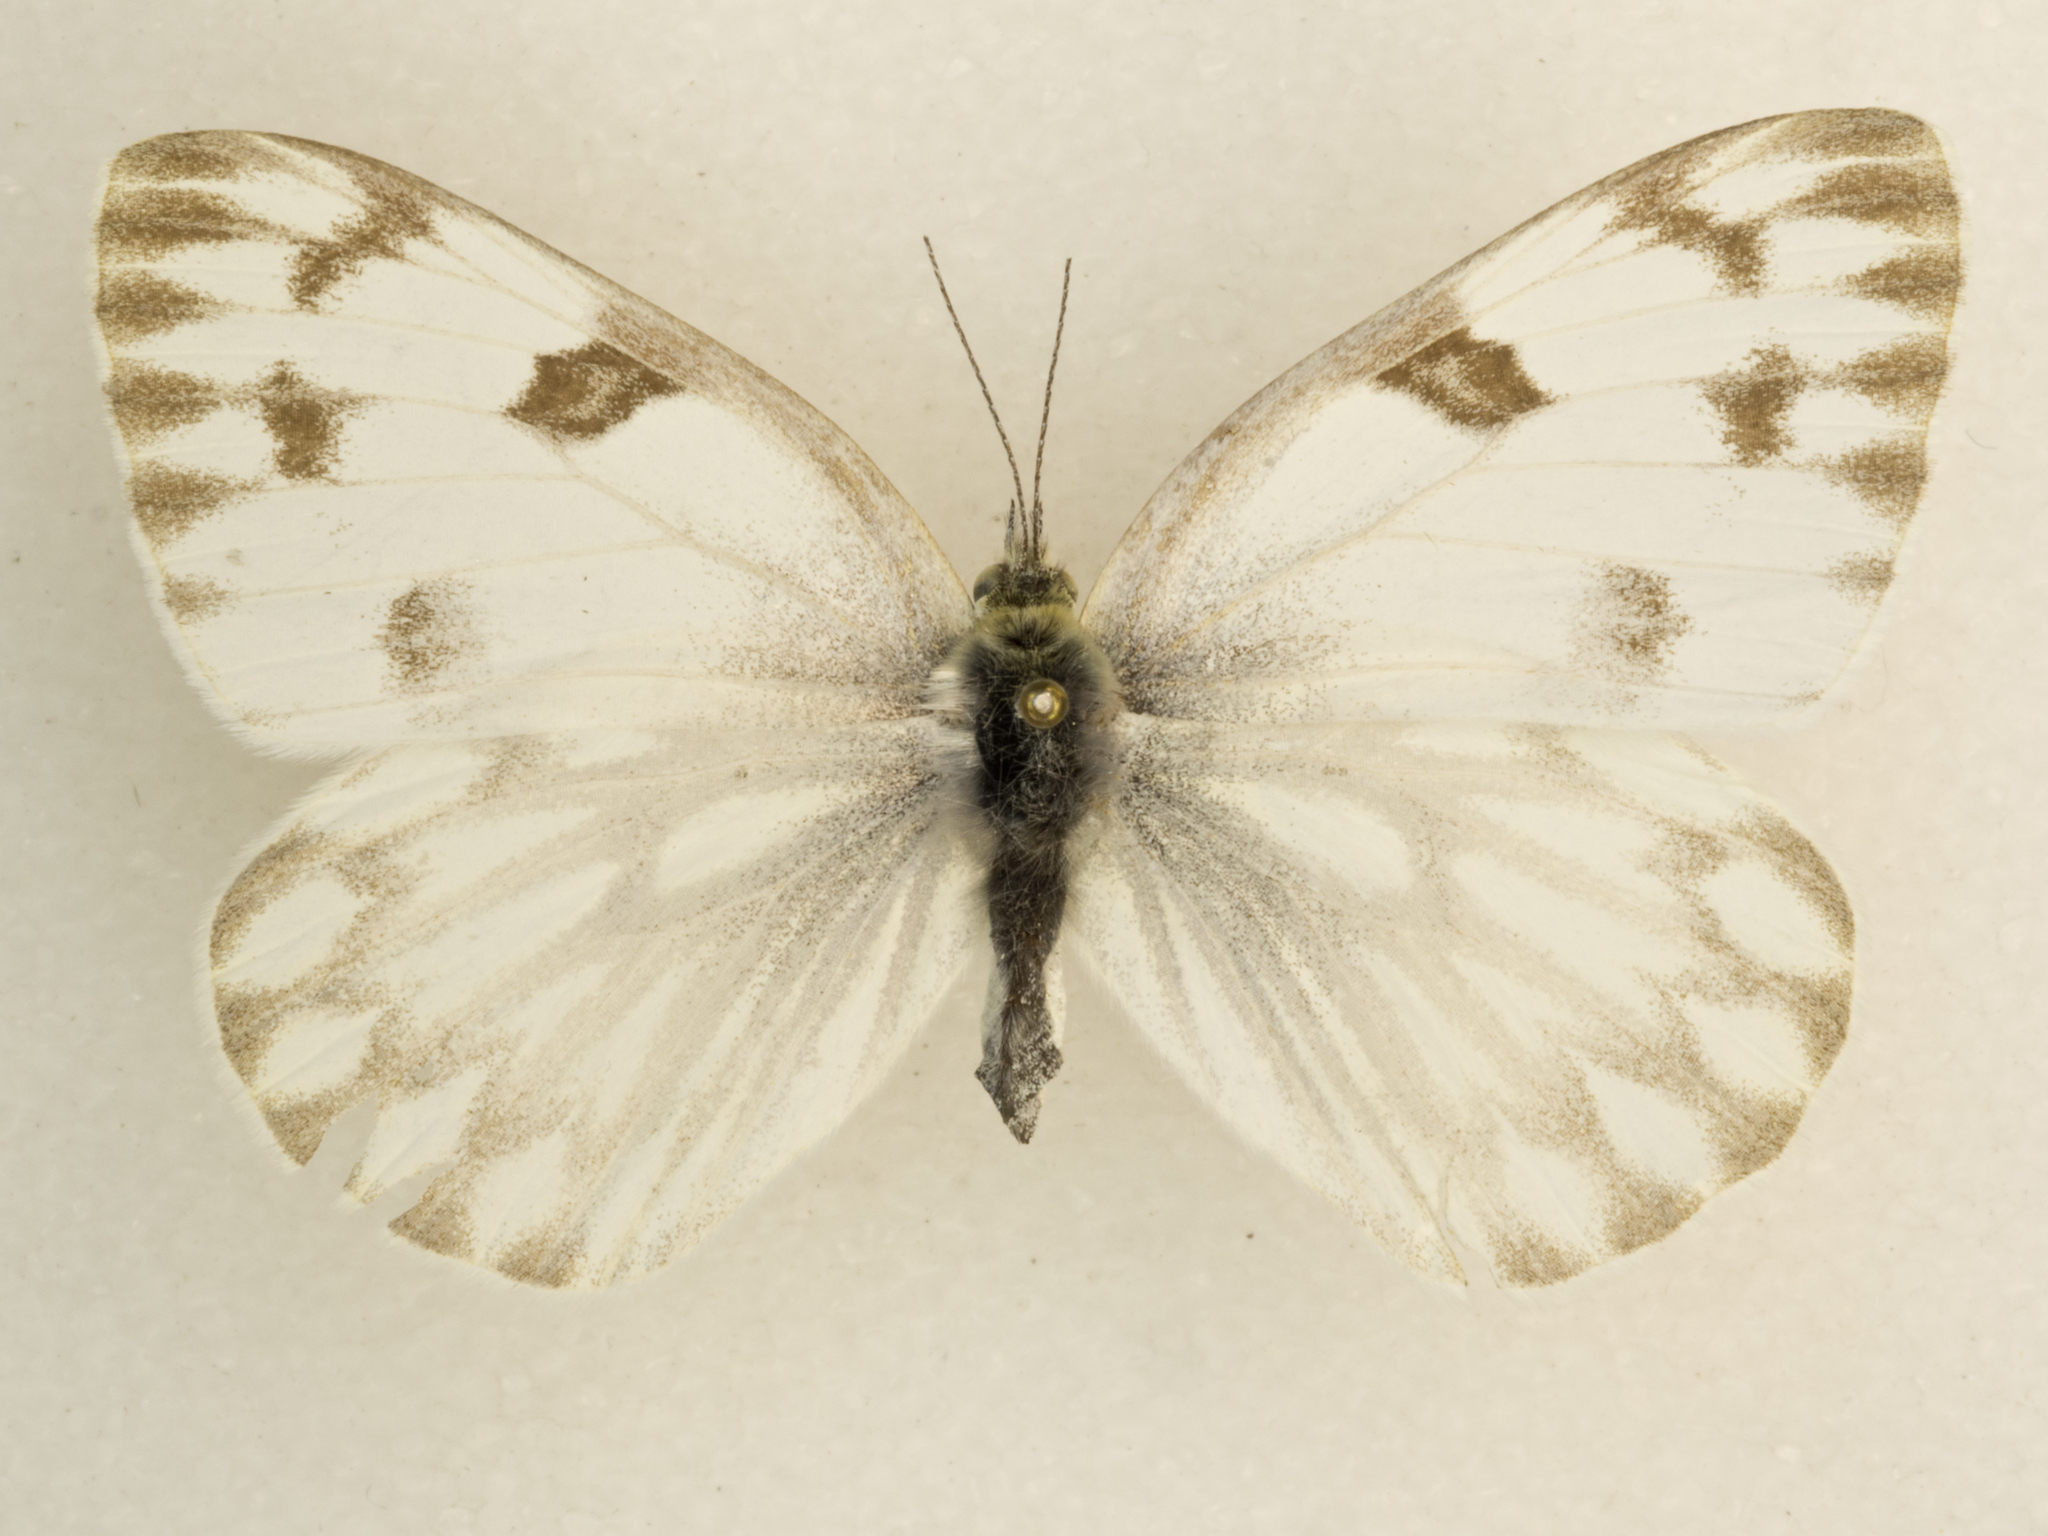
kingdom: Animalia
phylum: Arthropoda
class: Insecta
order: Lepidoptera
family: Pieridae
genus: Pontia
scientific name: Pontia protodice
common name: Checkered white
